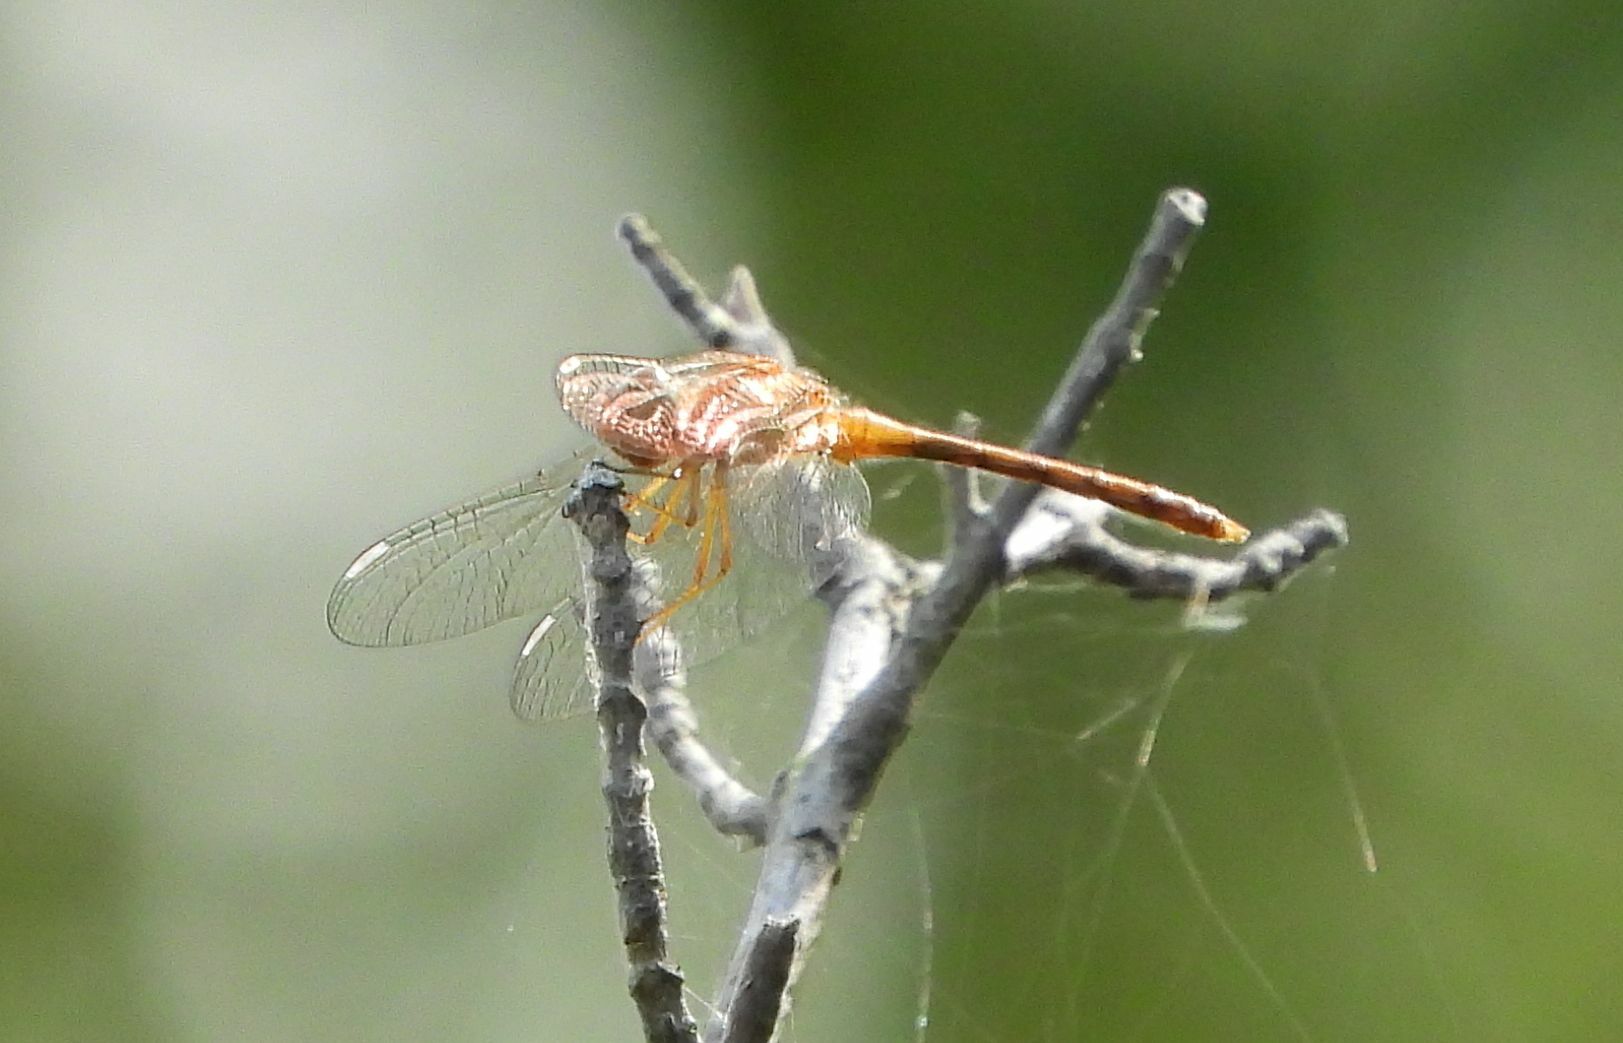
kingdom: Animalia
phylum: Arthropoda
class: Insecta
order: Odonata
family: Libellulidae
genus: Sympetrum
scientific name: Sympetrum vicinum
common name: Autumn meadowhawk
